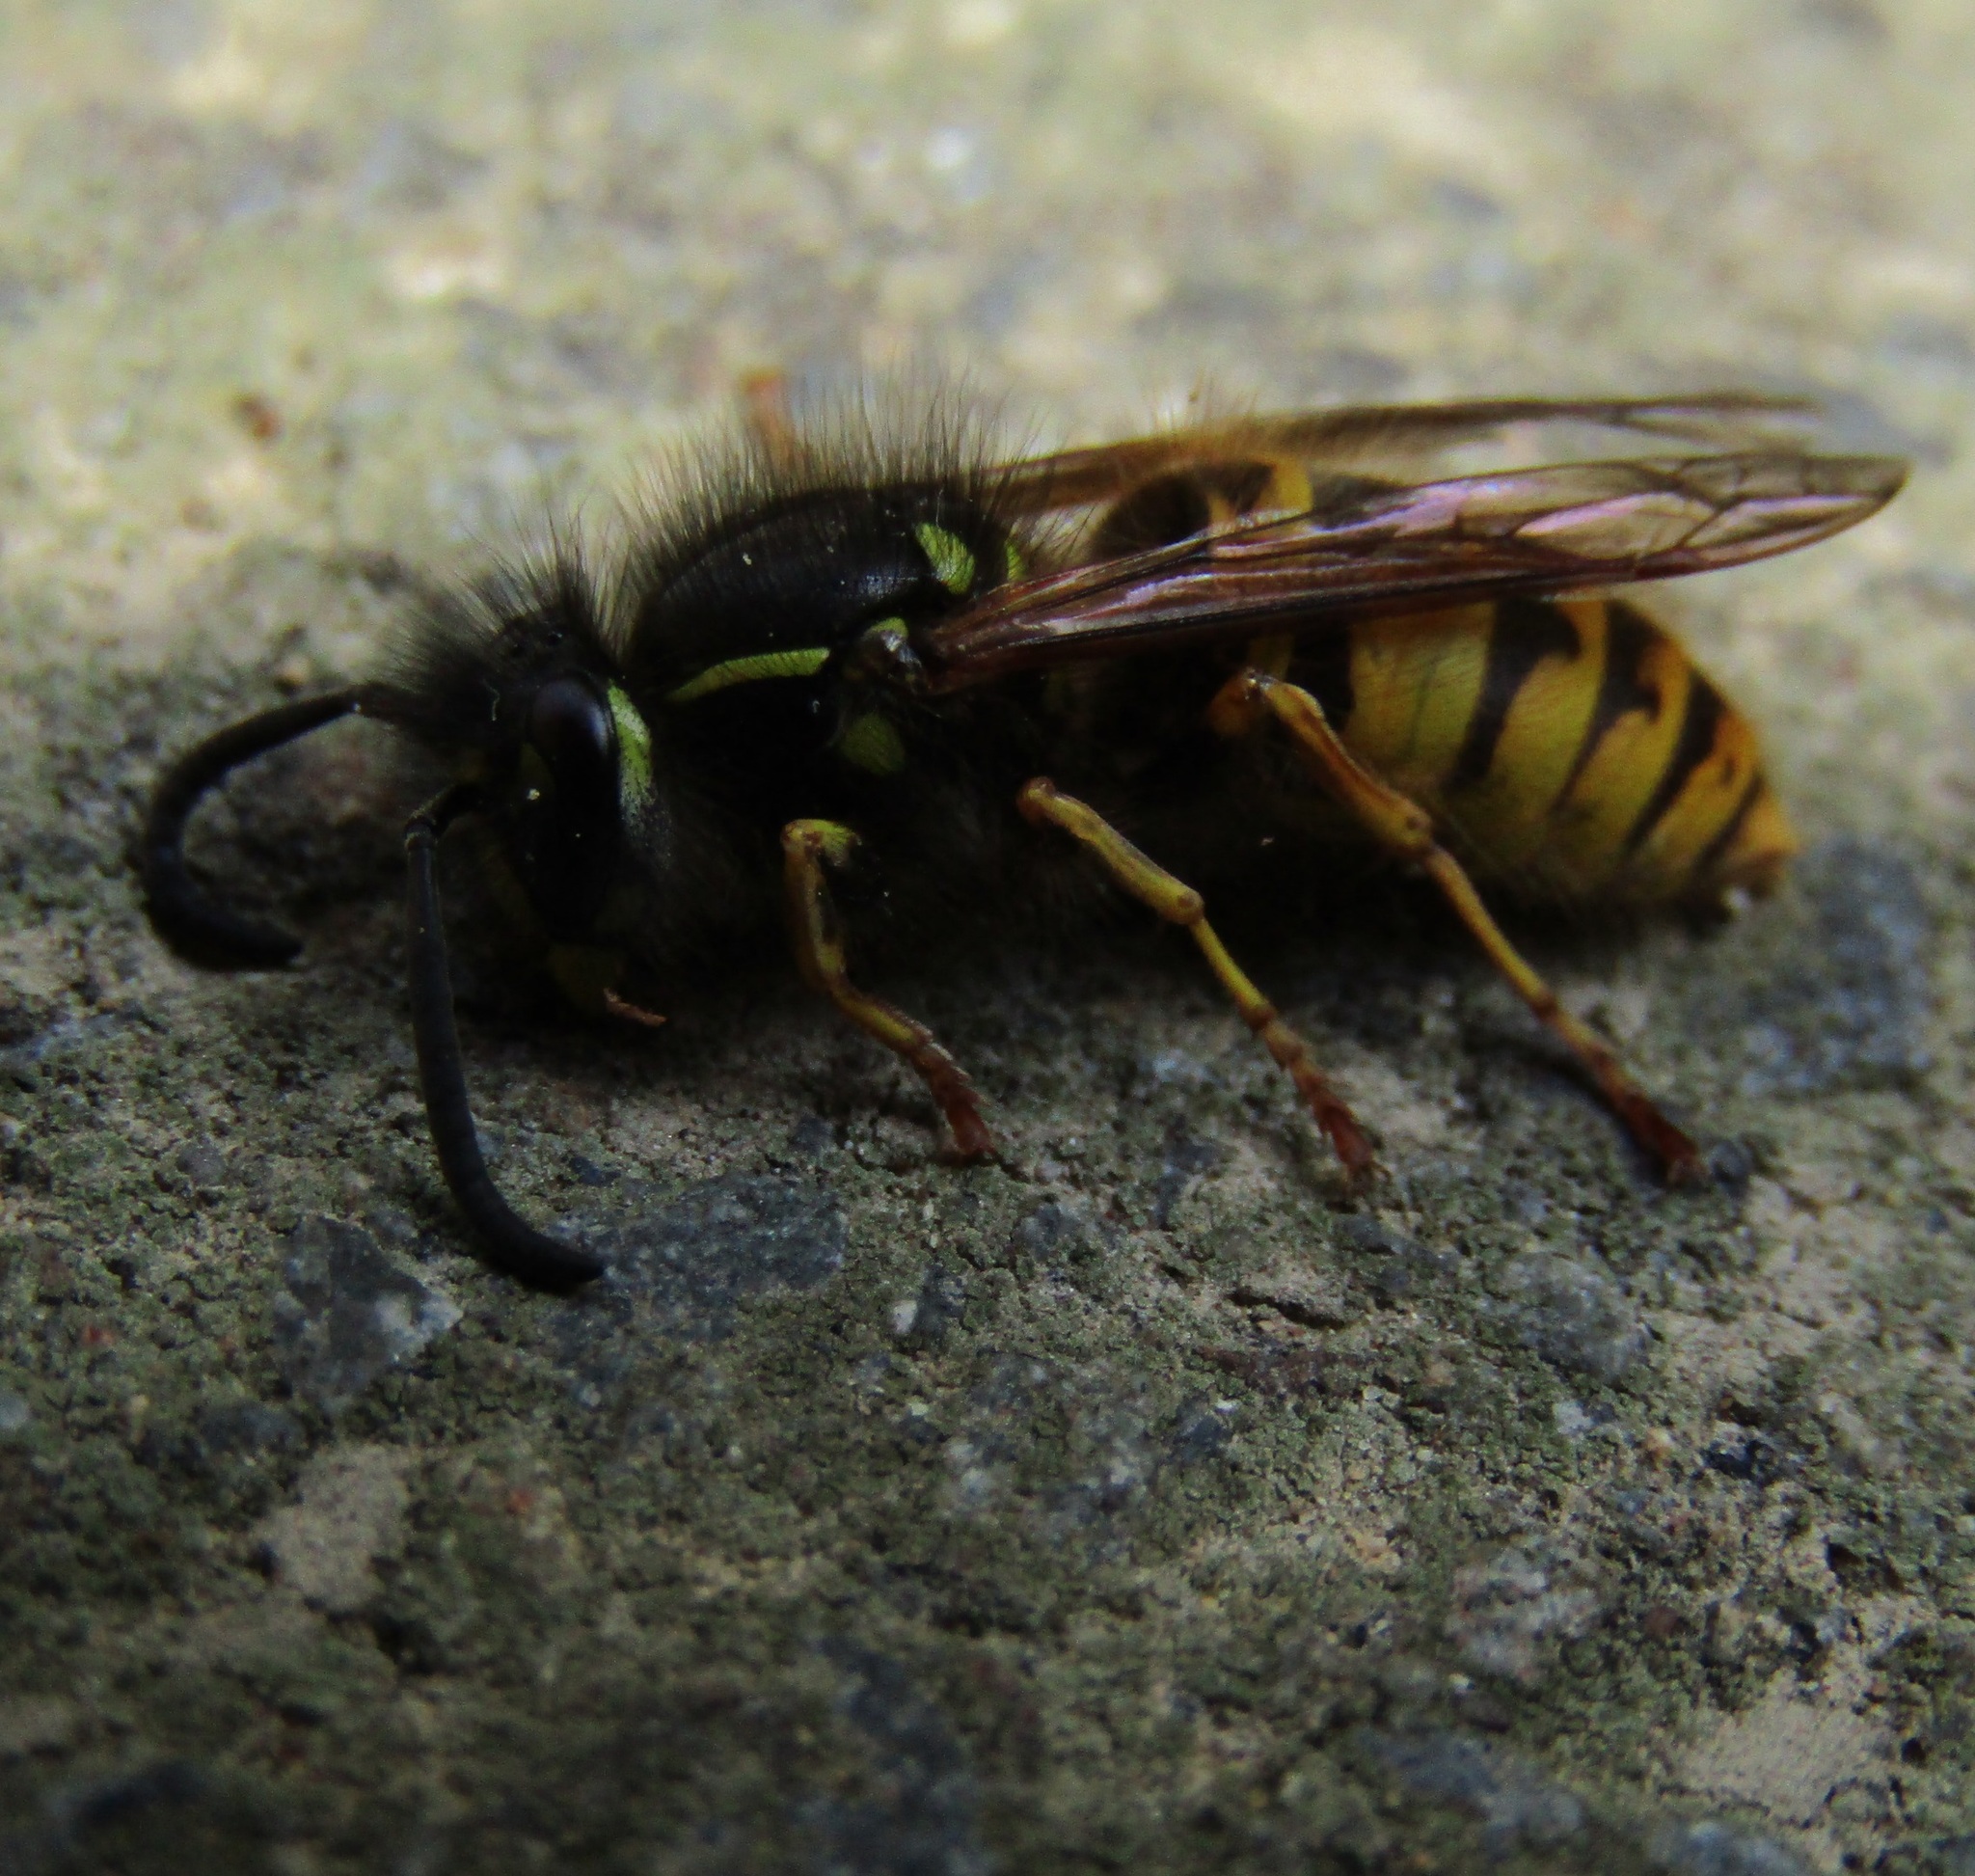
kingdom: Animalia
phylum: Arthropoda
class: Insecta
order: Hymenoptera
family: Vespidae
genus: Vespula
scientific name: Vespula vulgaris
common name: Common wasp
